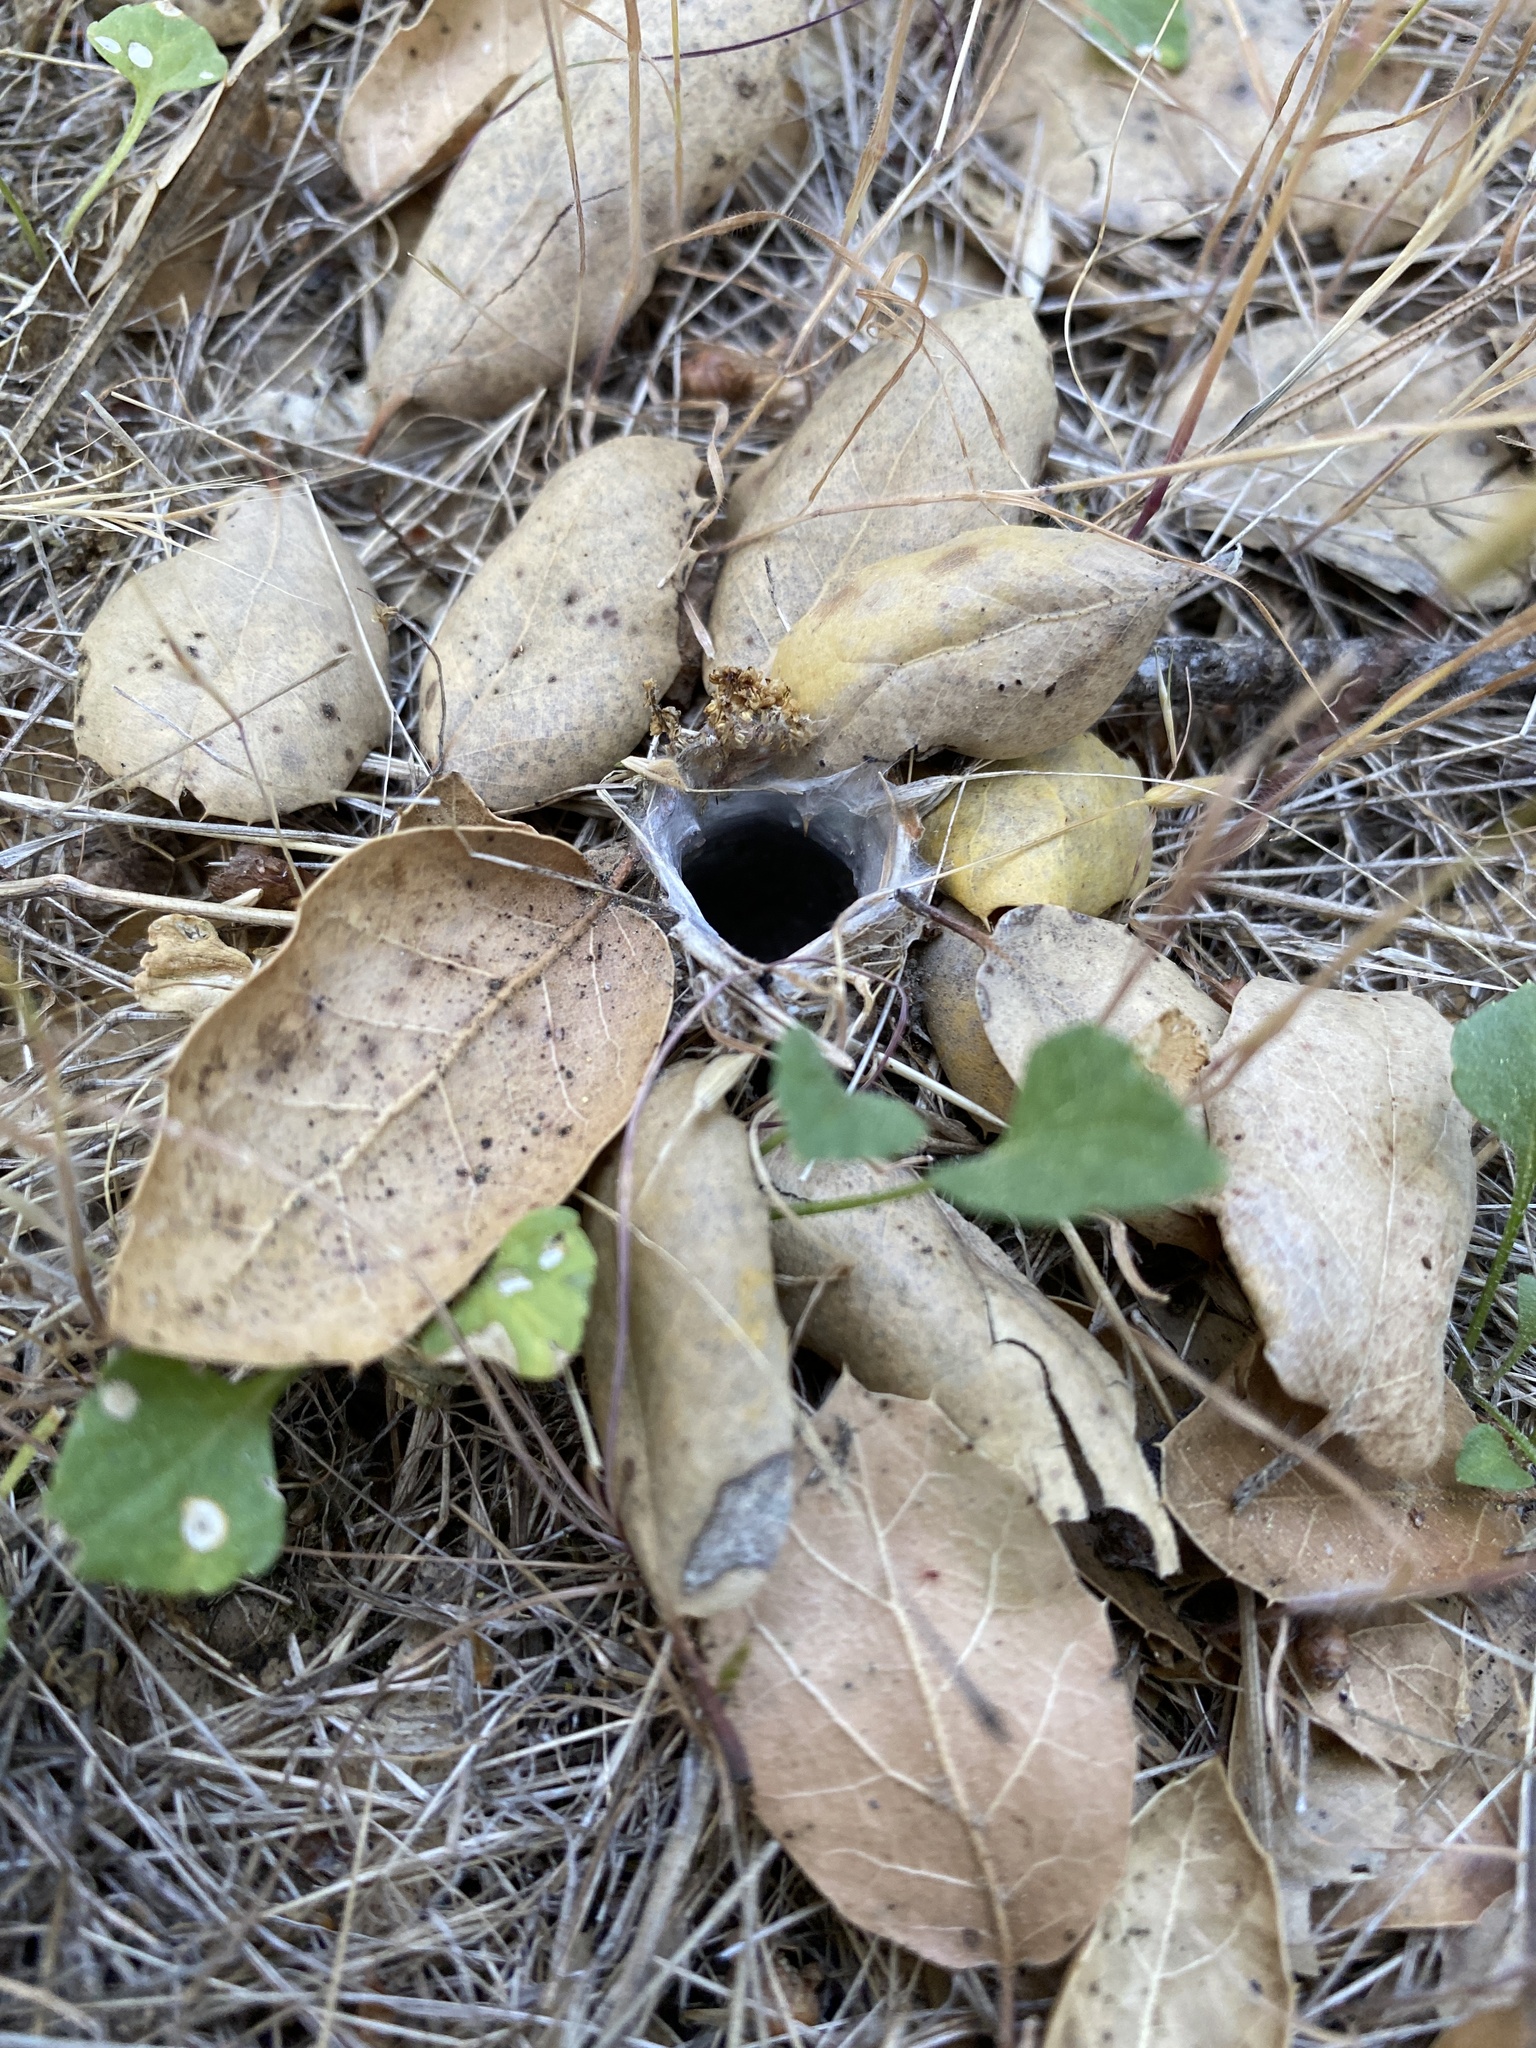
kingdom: Animalia
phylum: Arthropoda
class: Arachnida
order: Araneae
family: Antrodiaetidae
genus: Atypoides
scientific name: Atypoides riversi
